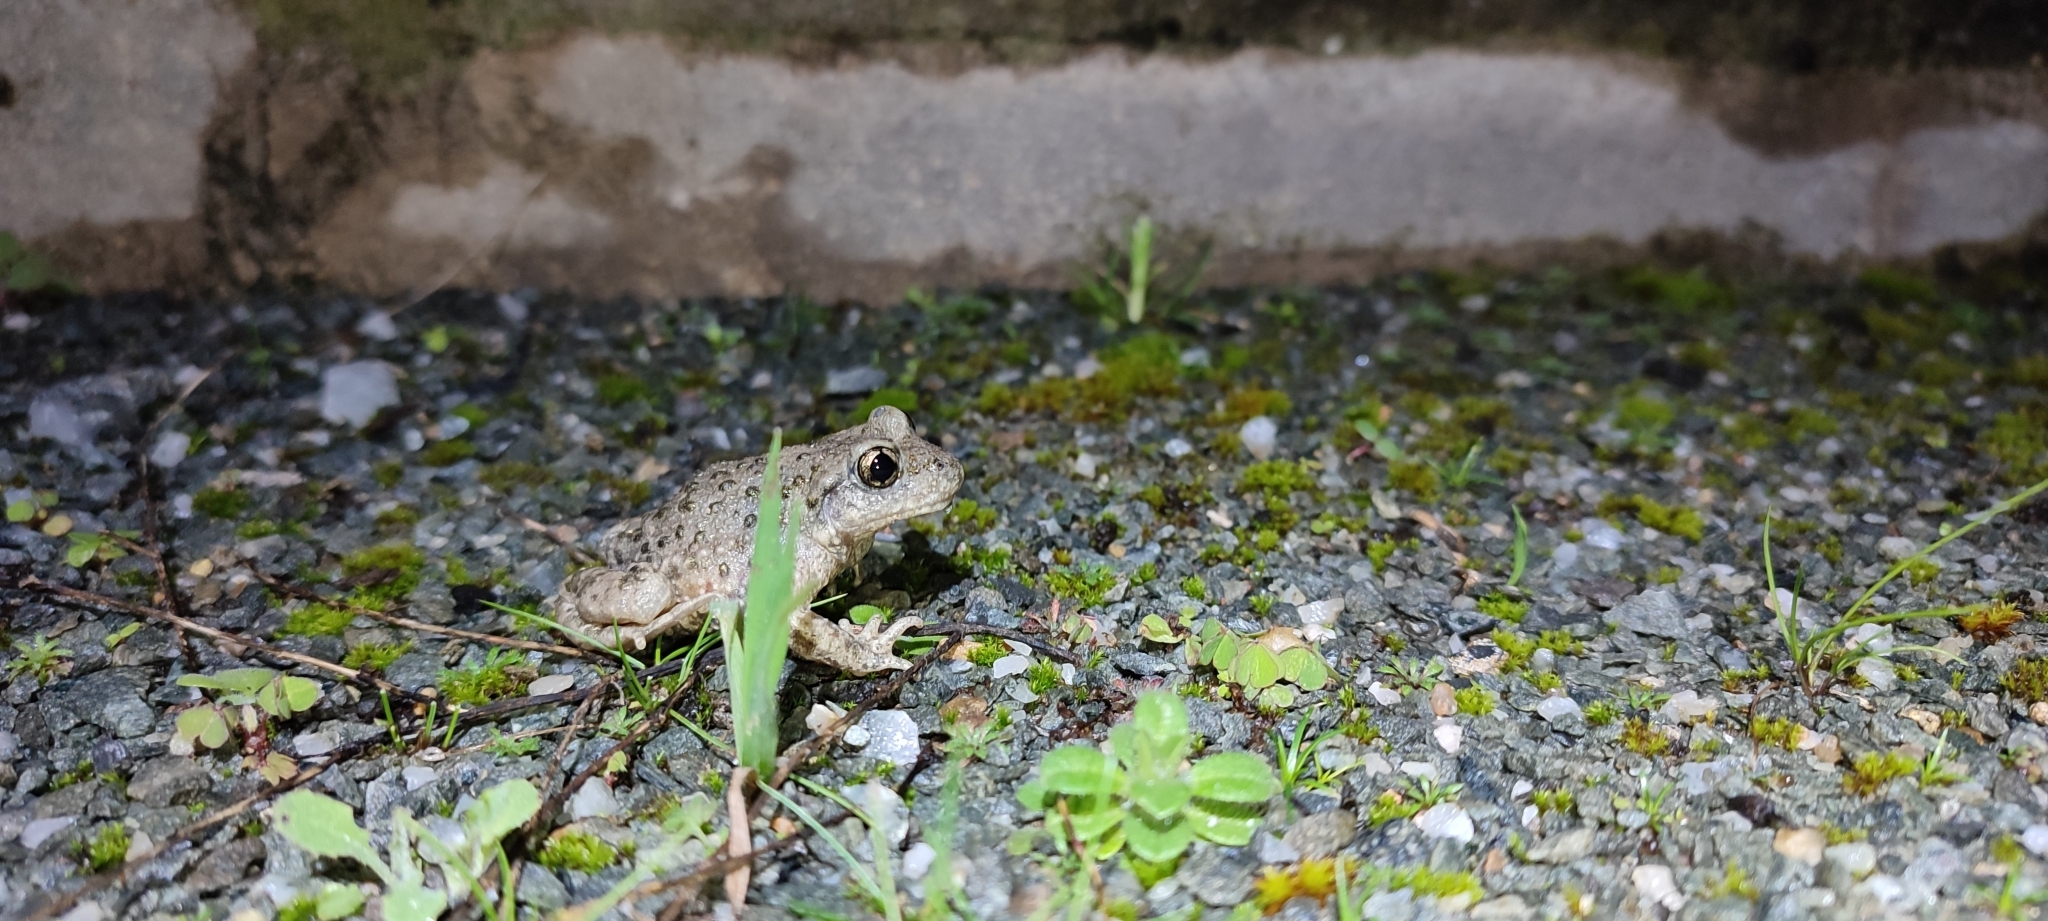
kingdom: Animalia
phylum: Chordata
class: Amphibia
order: Anura
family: Alytidae
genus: Alytes
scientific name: Alytes obstetricans
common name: Midwife toad
